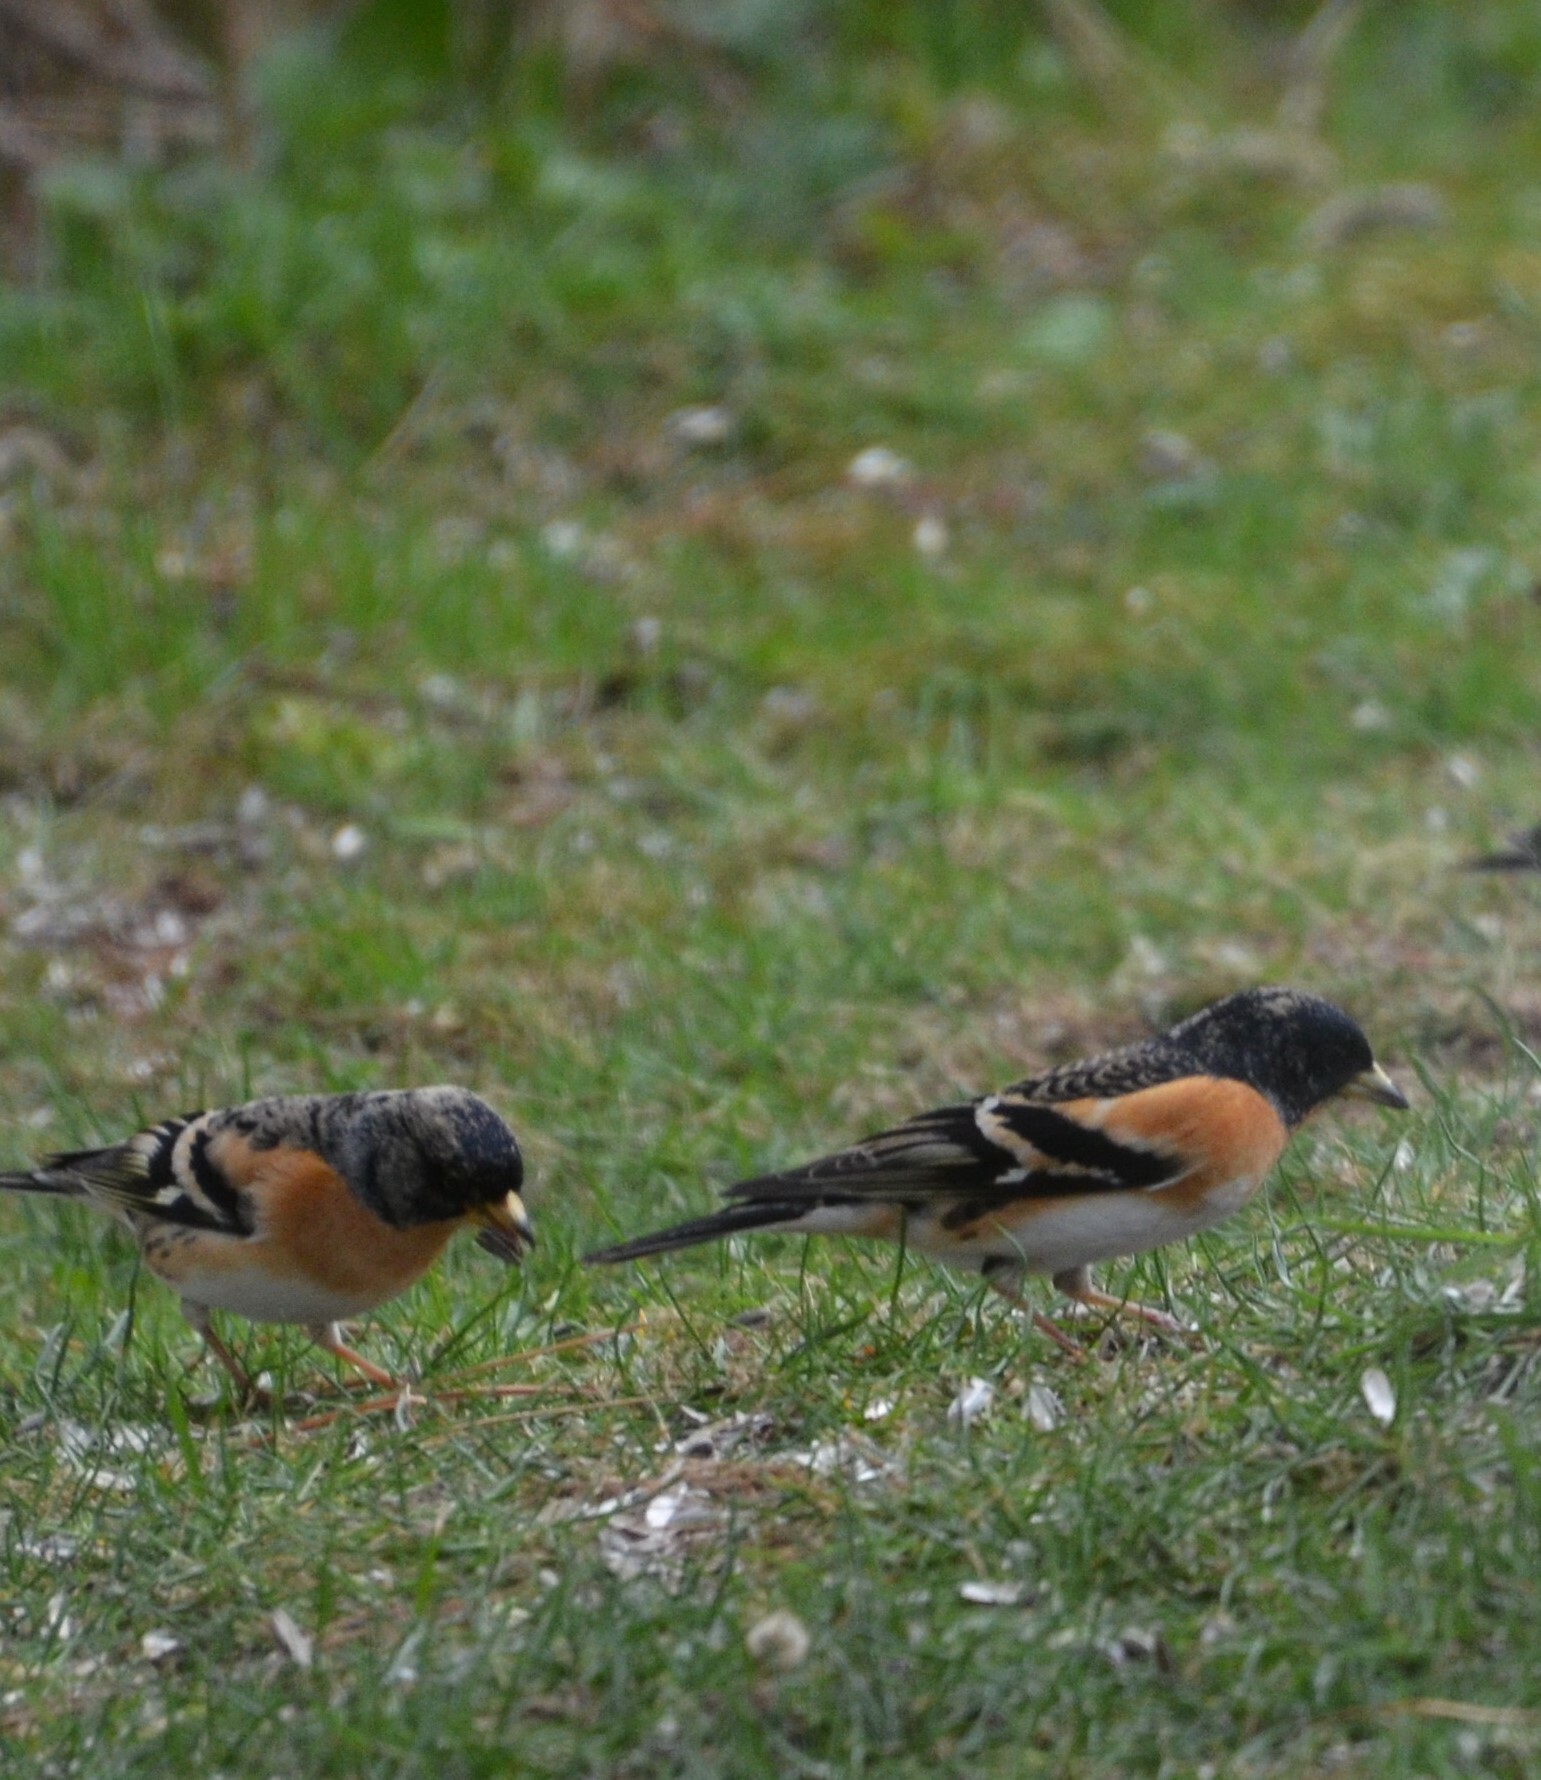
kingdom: Animalia
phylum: Chordata
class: Aves
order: Passeriformes
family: Fringillidae
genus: Fringilla
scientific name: Fringilla montifringilla
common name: Brambling
